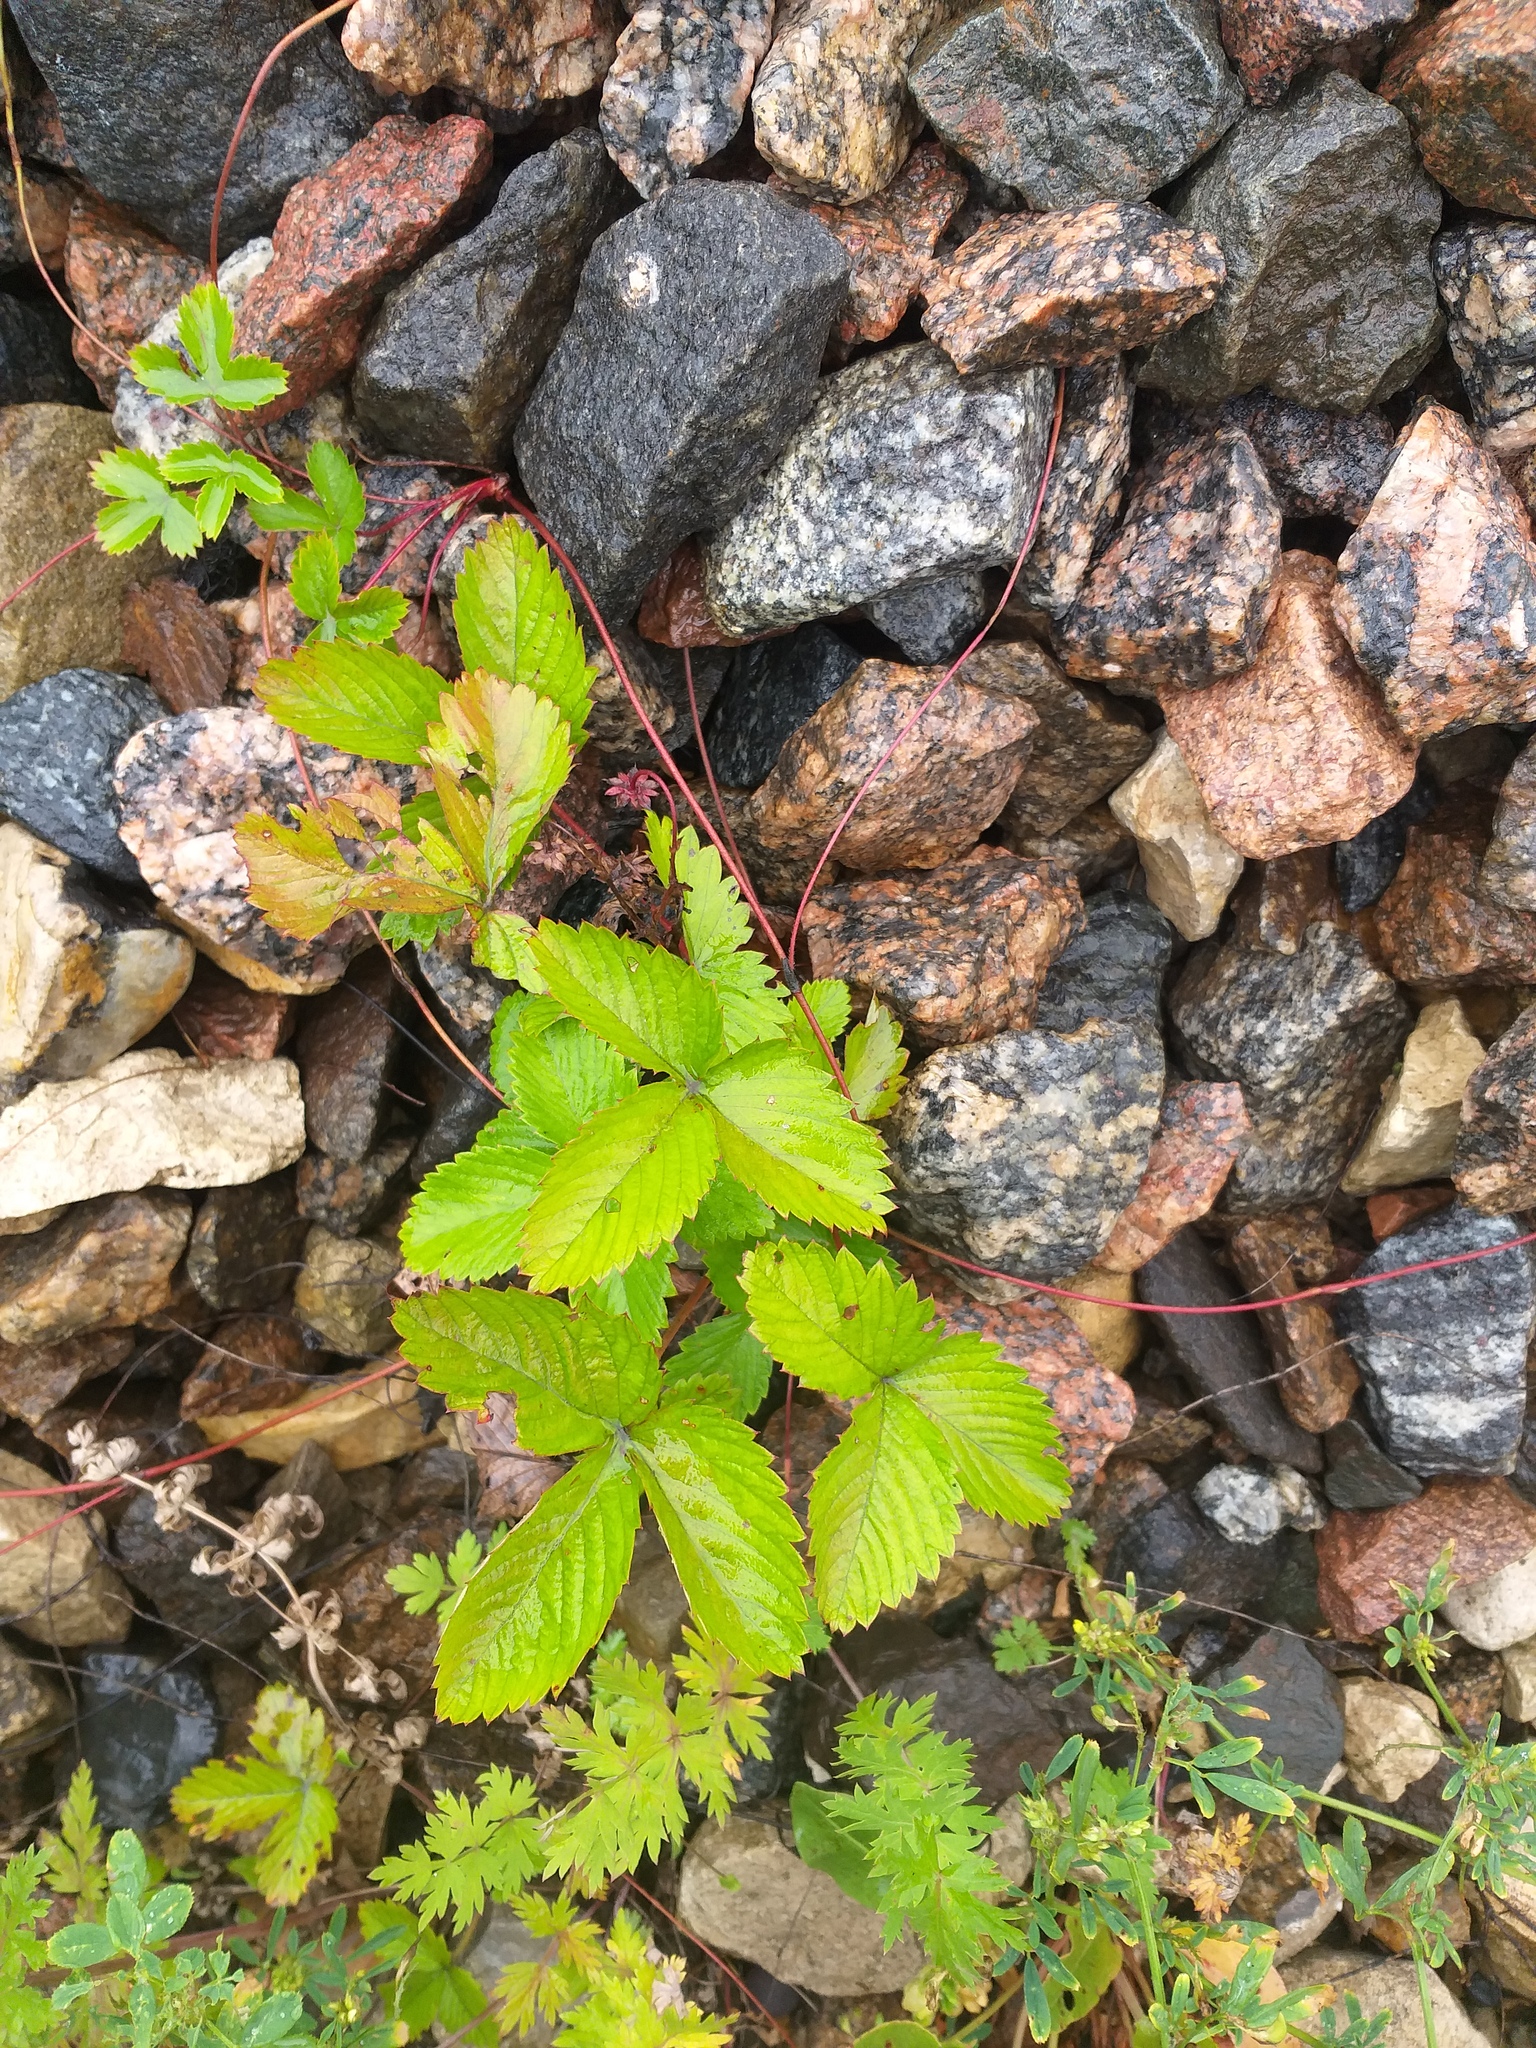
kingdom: Plantae
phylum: Tracheophyta
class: Magnoliopsida
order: Rosales
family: Rosaceae
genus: Fragaria
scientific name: Fragaria vesca
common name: Wild strawberry
